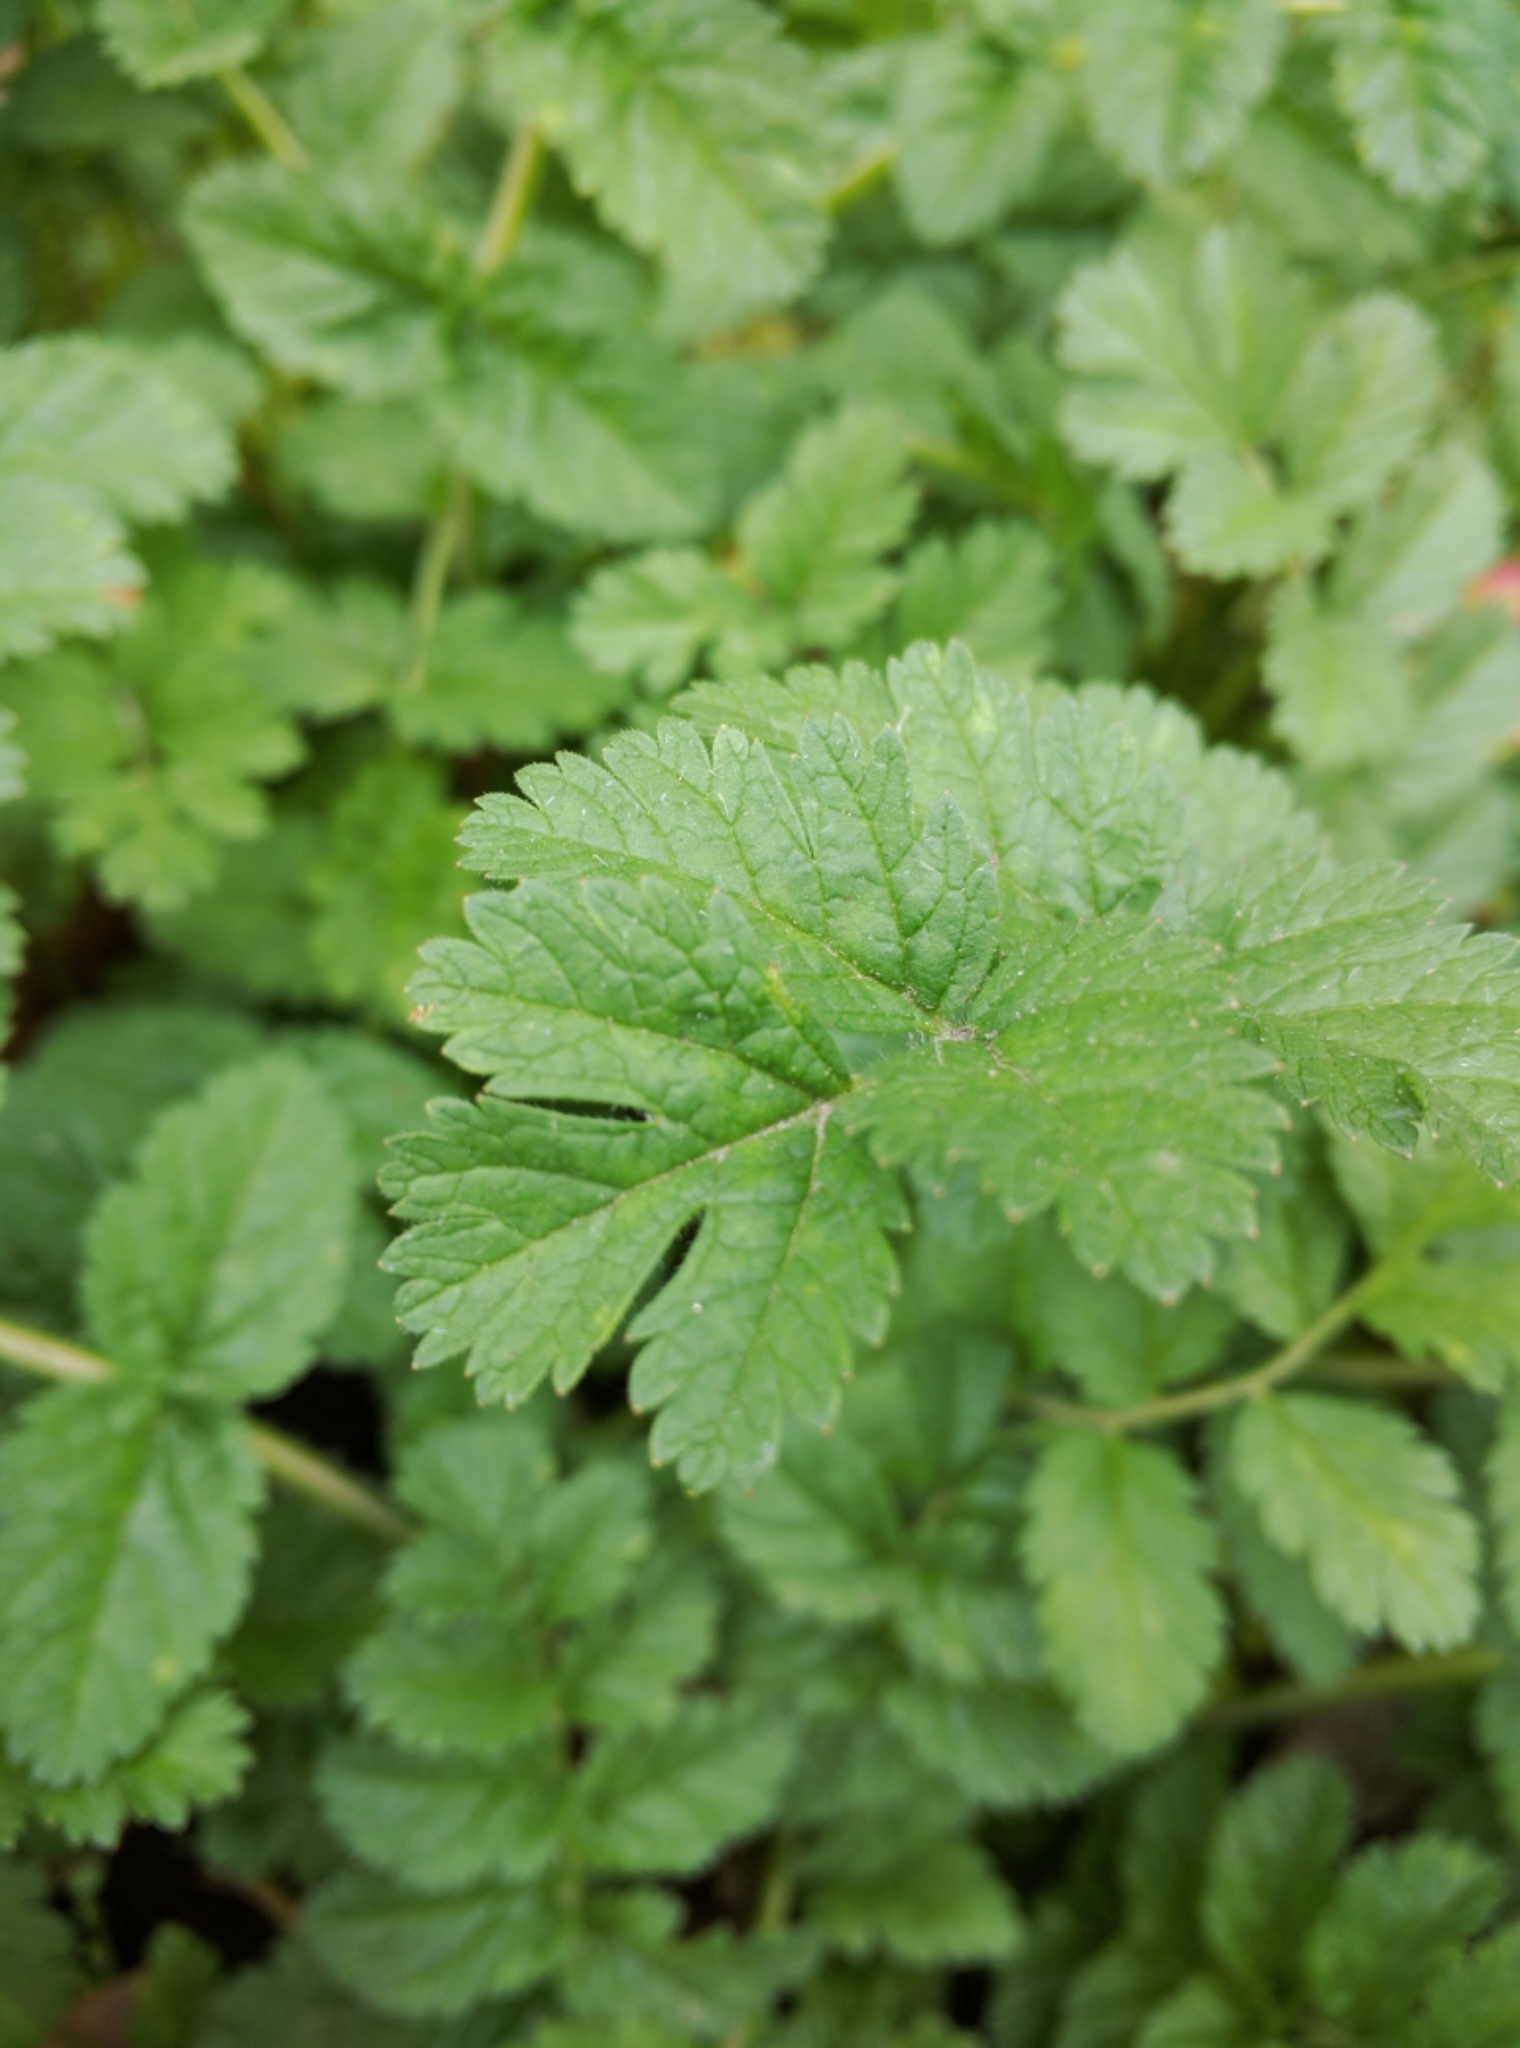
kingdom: Plantae
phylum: Tracheophyta
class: Magnoliopsida
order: Geraniales
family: Geraniaceae
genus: Erodium
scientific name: Erodium moschatum
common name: Musk stork's-bill
